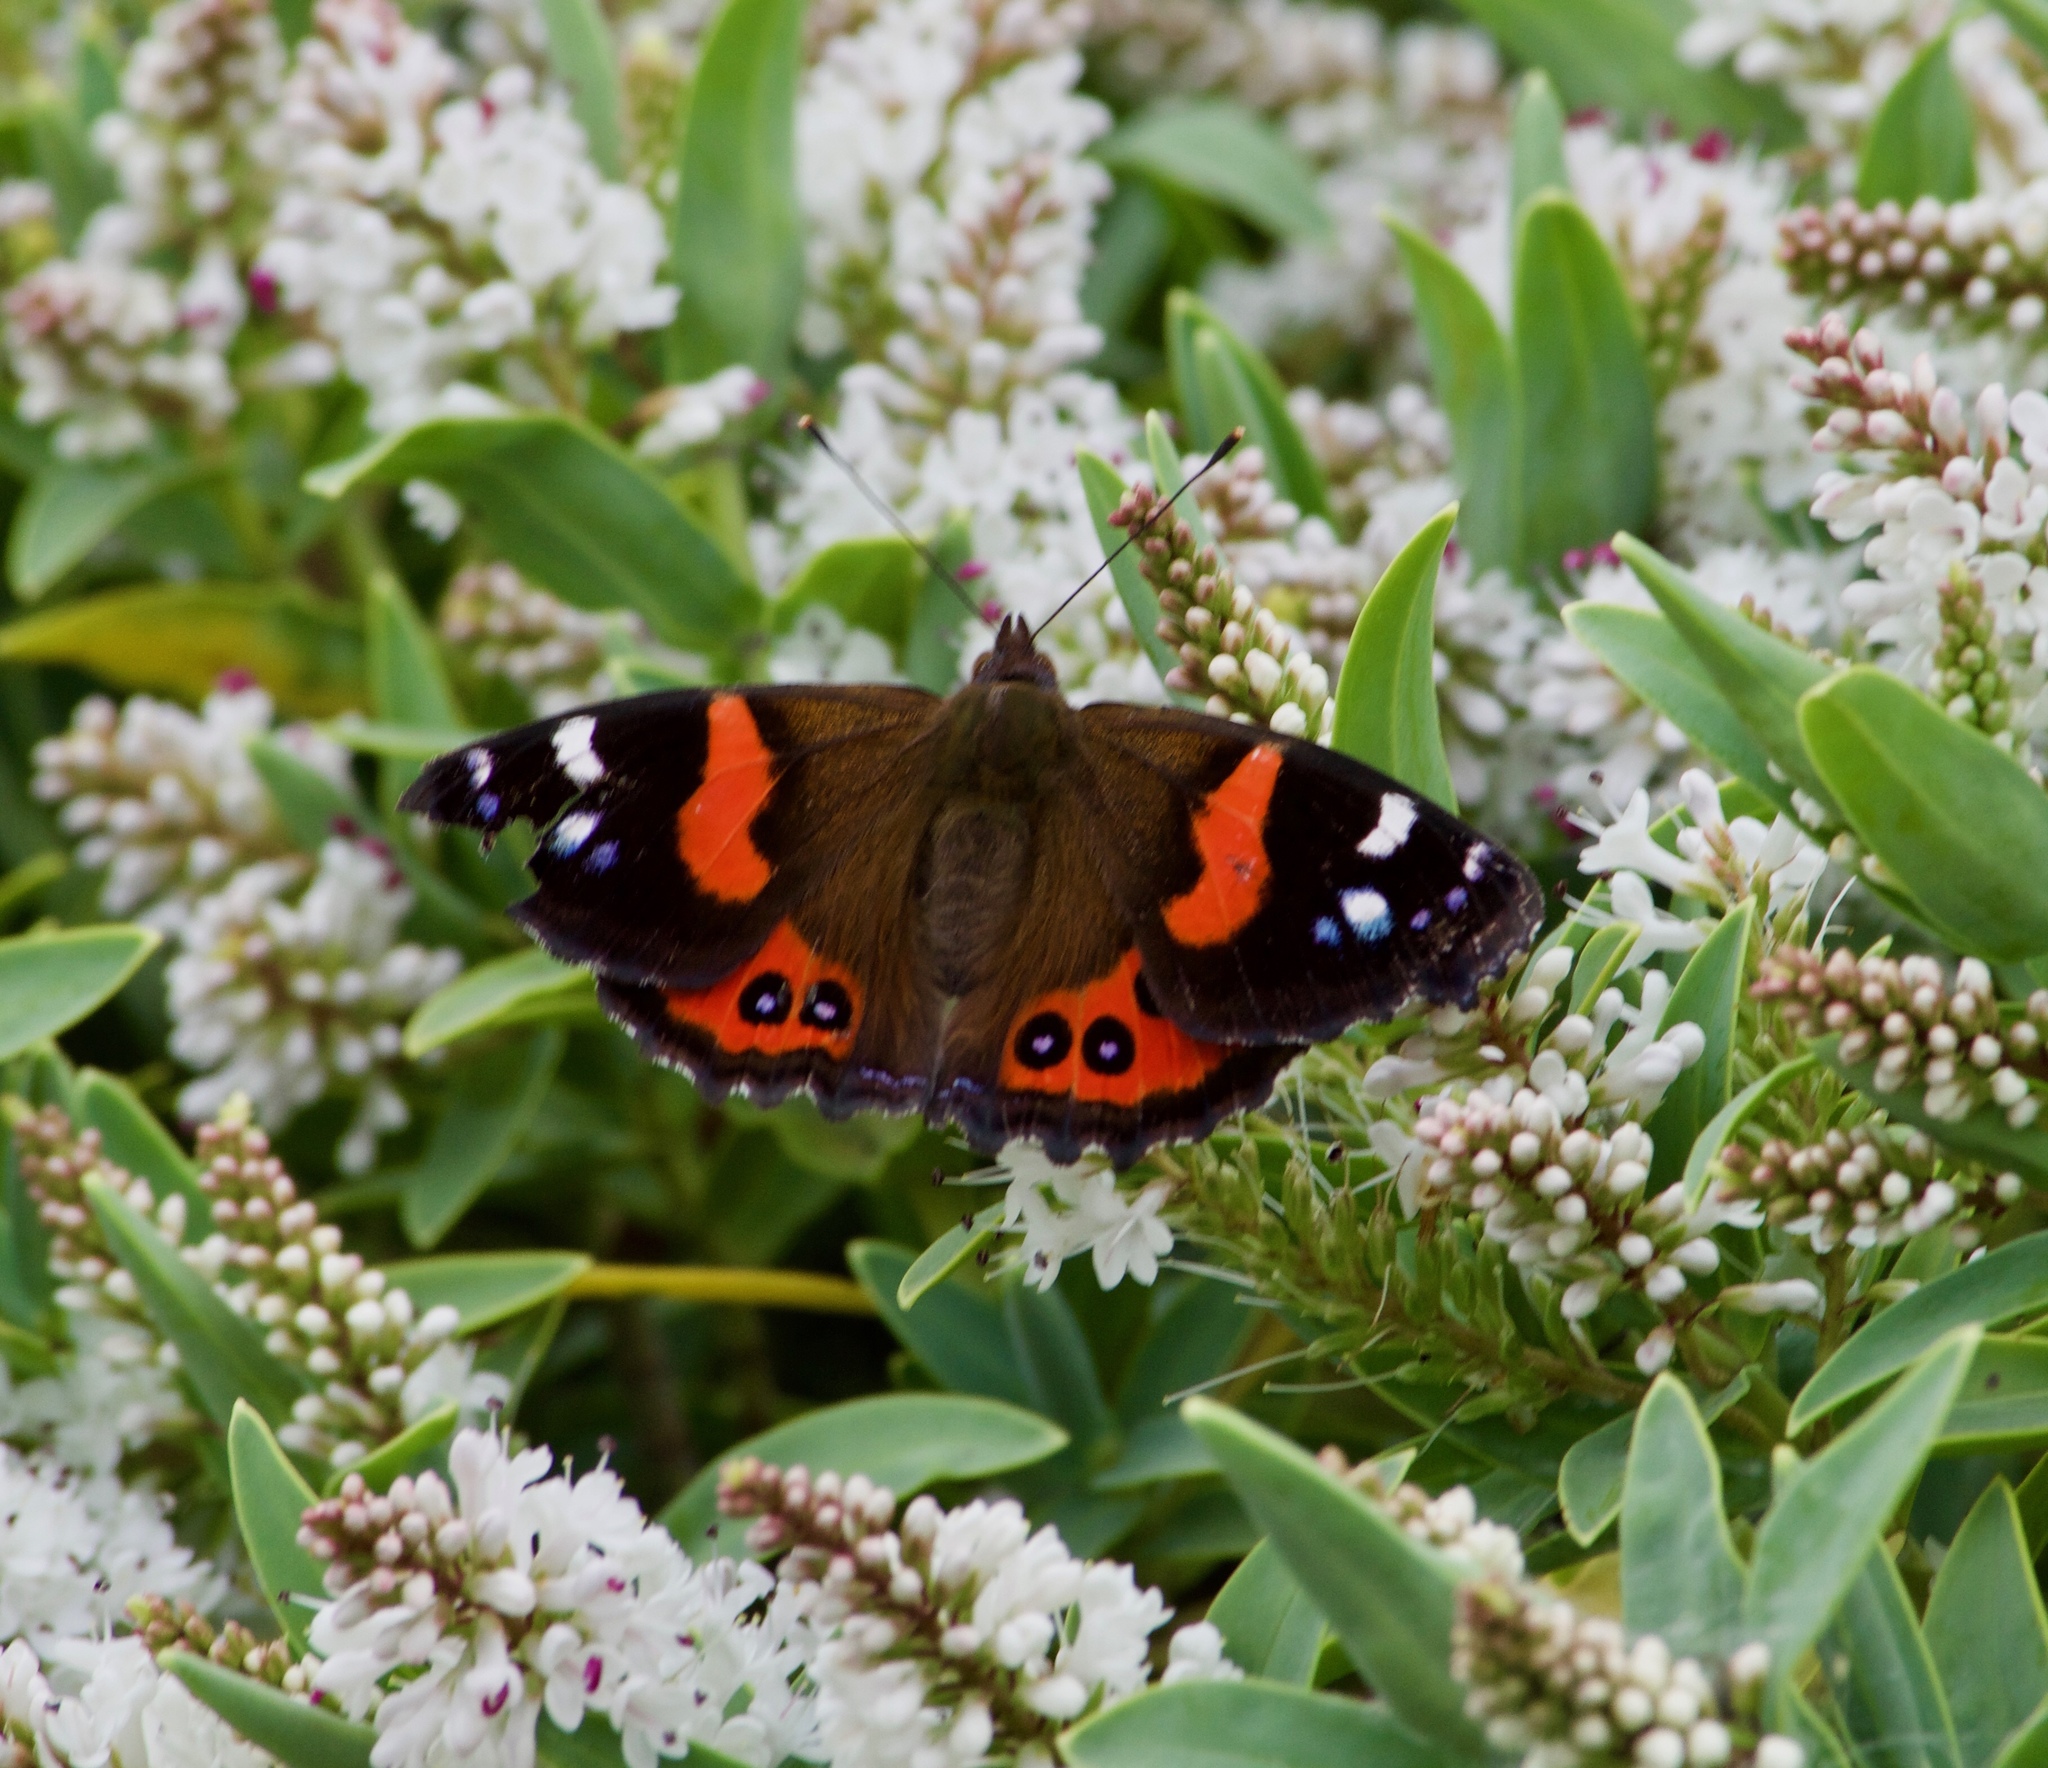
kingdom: Animalia
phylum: Arthropoda
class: Insecta
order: Lepidoptera
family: Nymphalidae
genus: Vanessa
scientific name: Vanessa gonerilla
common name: New zealand red admiral
